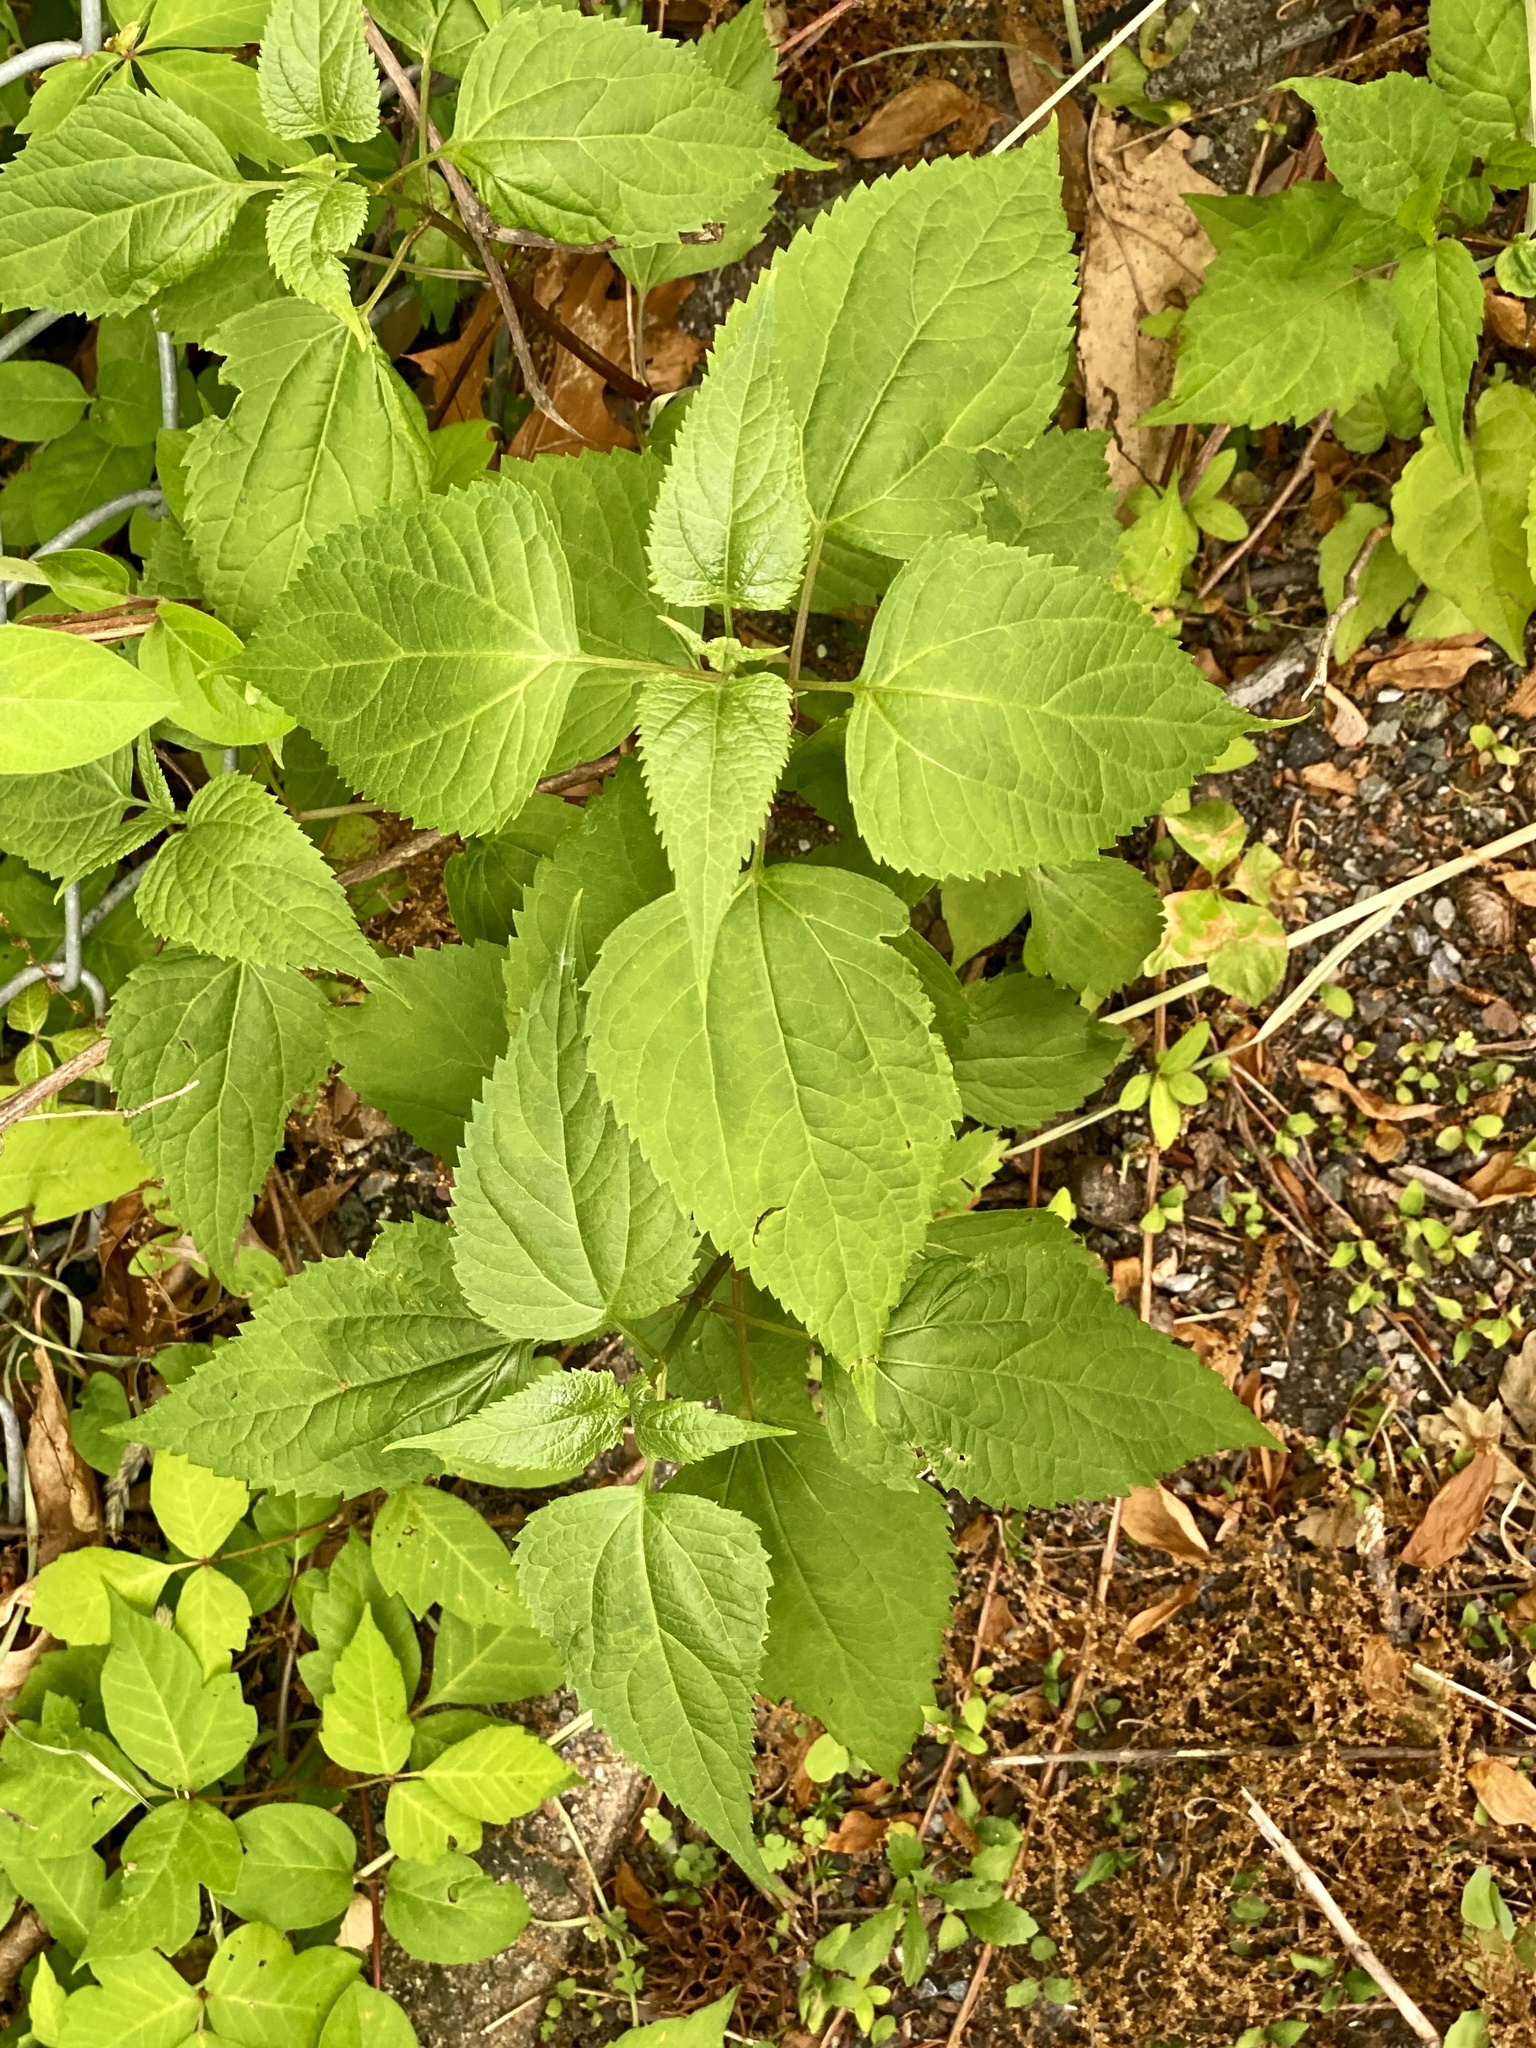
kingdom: Plantae
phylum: Tracheophyta
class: Magnoliopsida
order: Asterales
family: Asteraceae
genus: Ageratina
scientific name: Ageratina altissima
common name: White snakeroot
